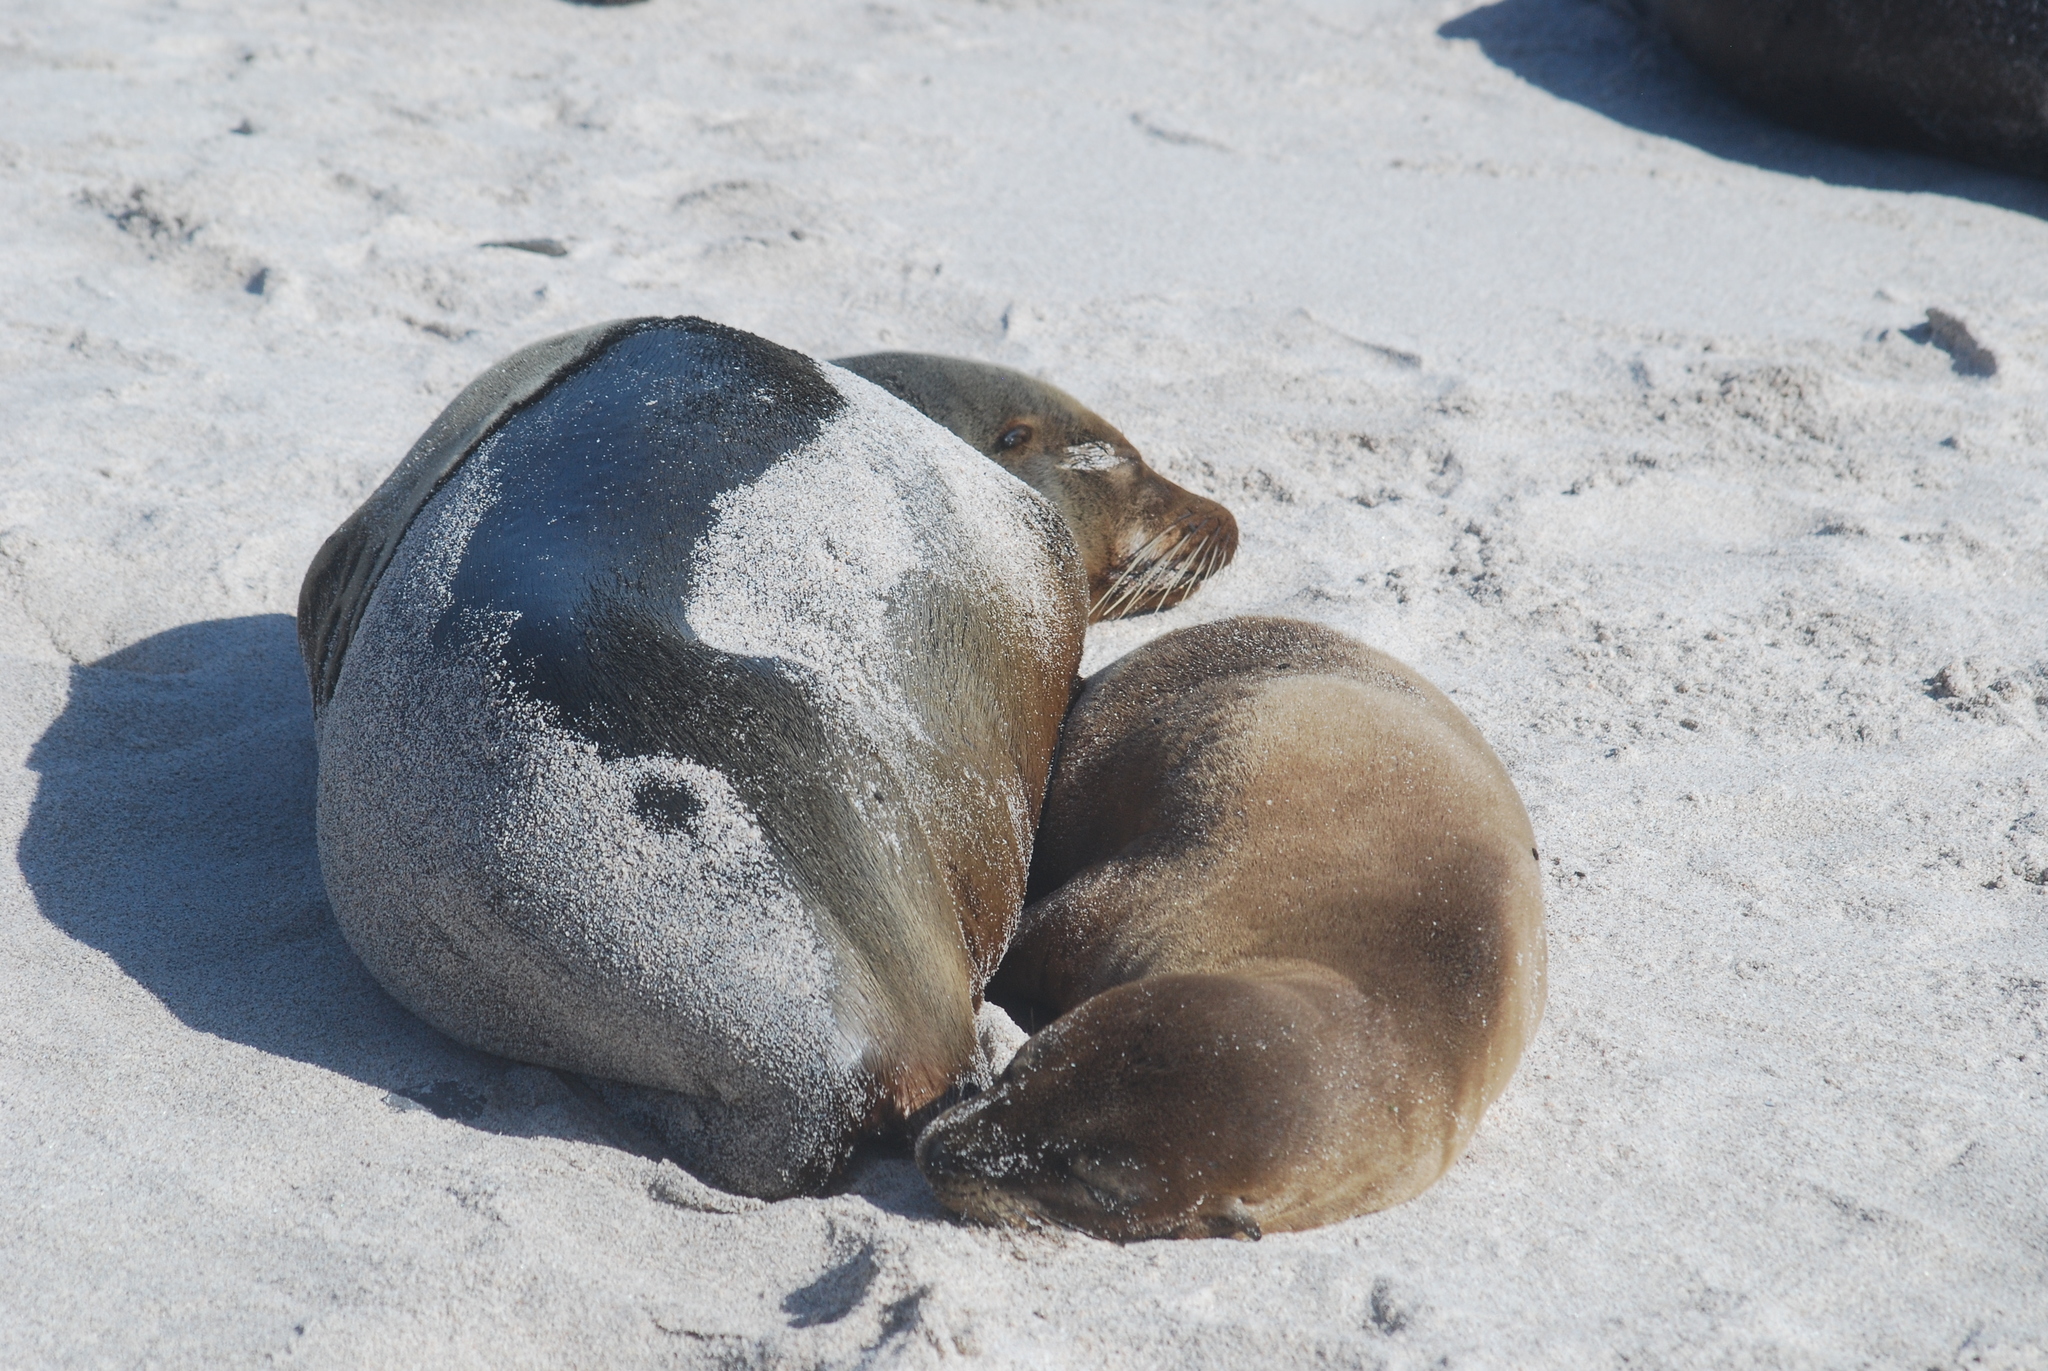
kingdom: Animalia
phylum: Chordata
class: Mammalia
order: Carnivora
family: Otariidae
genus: Zalophus
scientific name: Zalophus wollebaeki
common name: Galapagos sea lion
